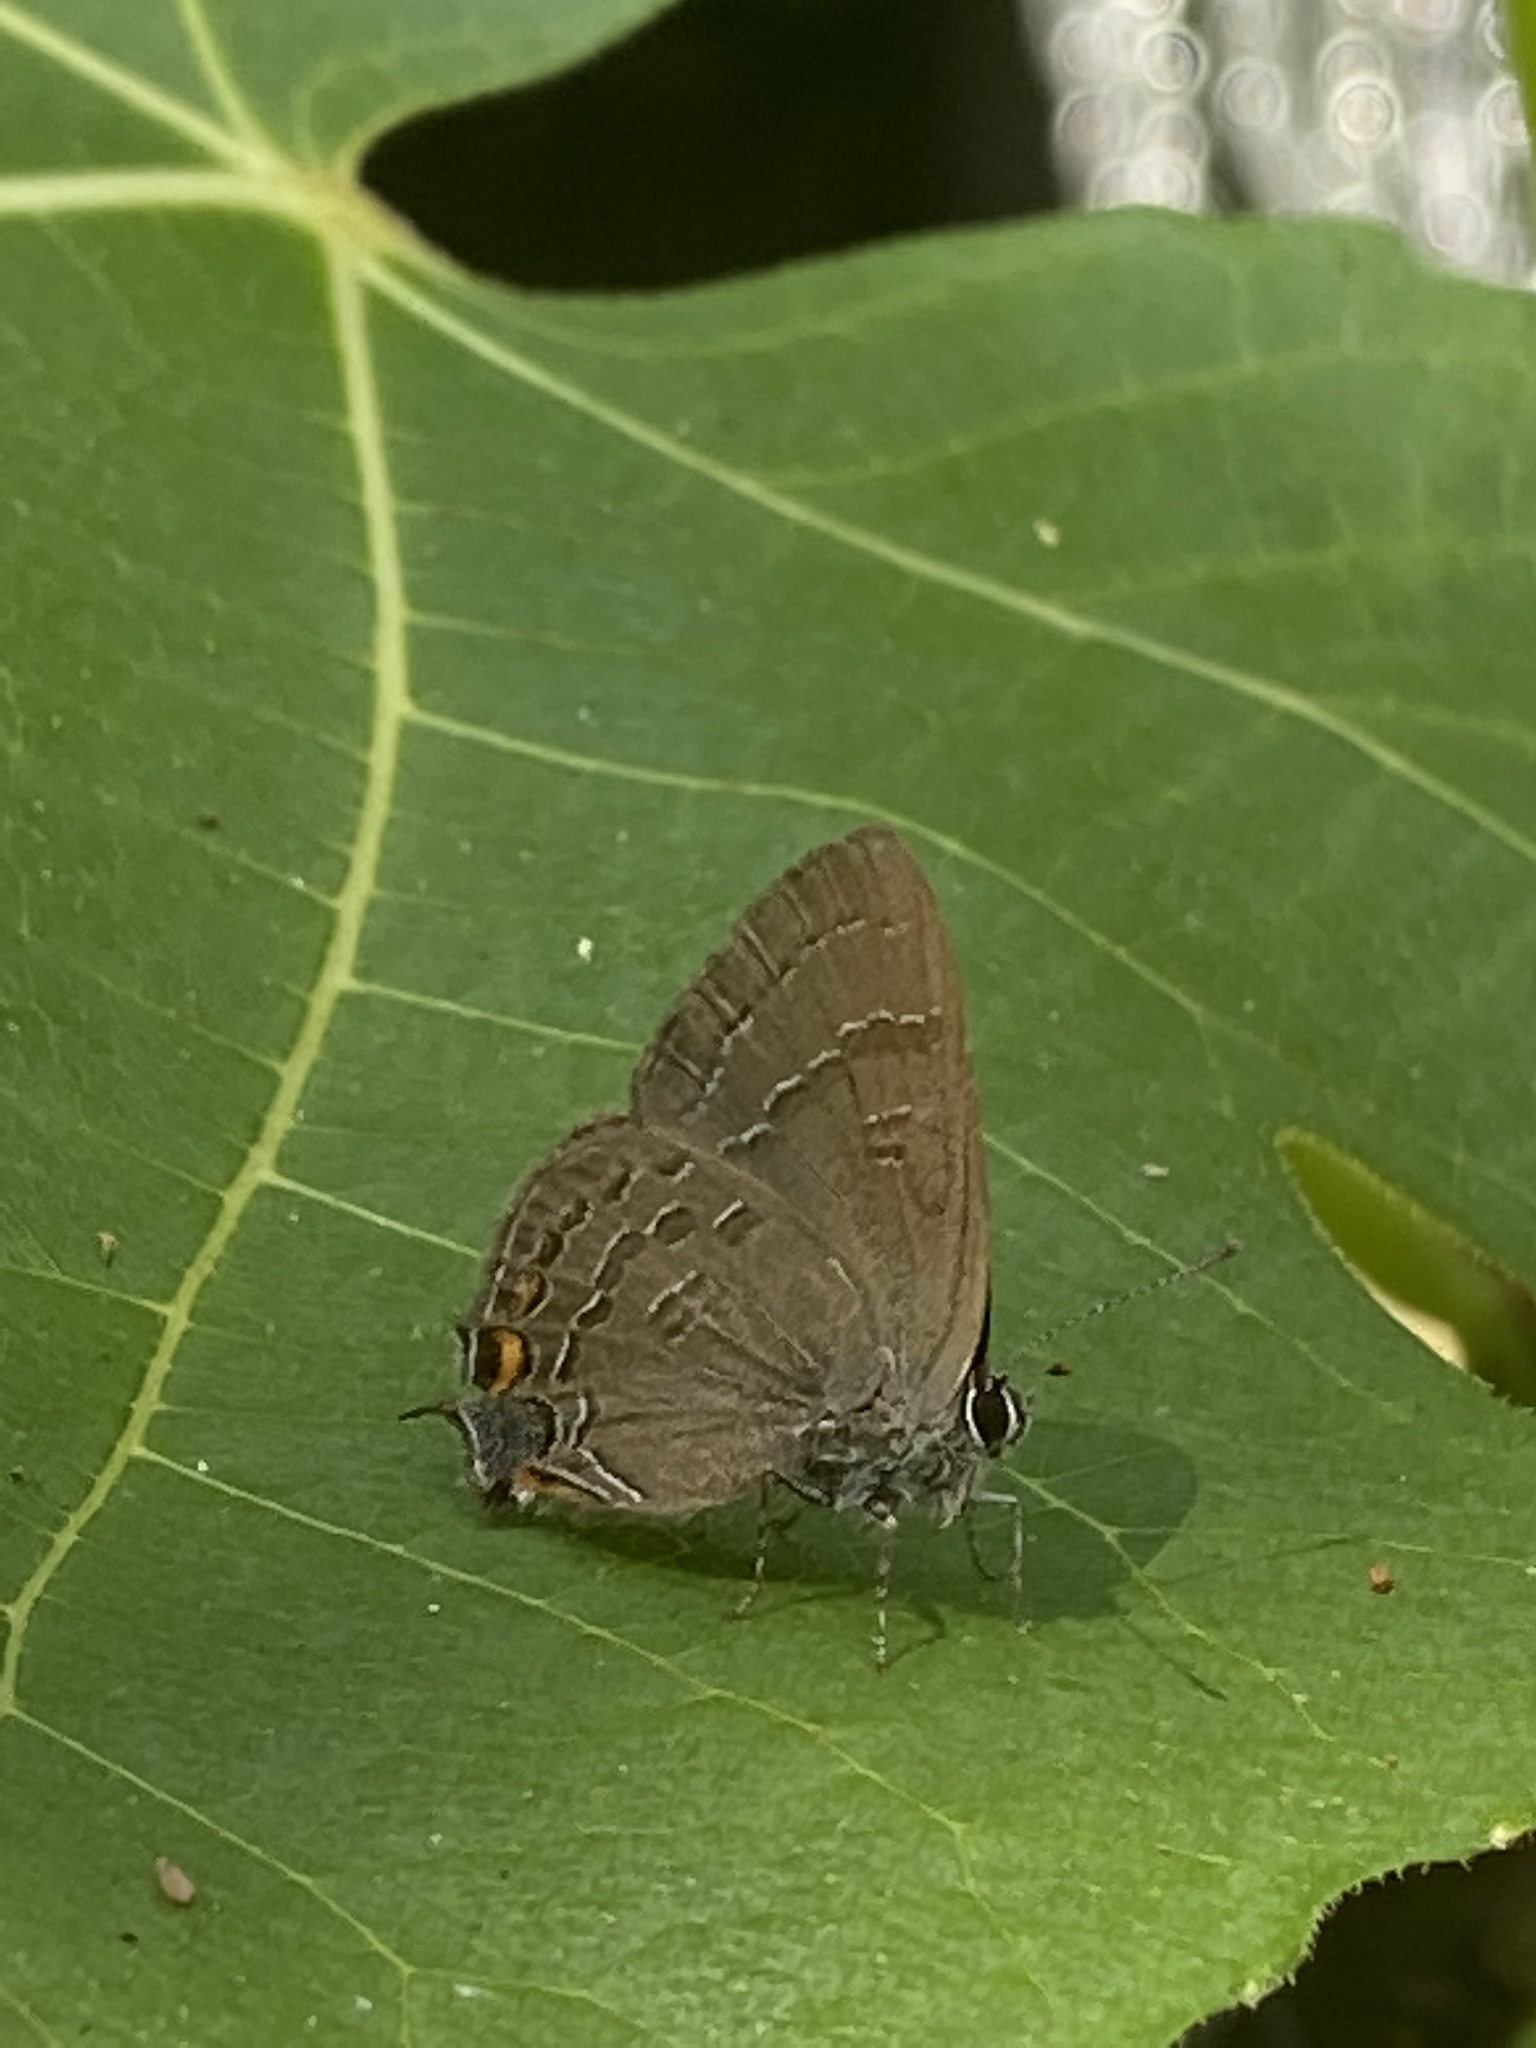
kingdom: Animalia
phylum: Arthropoda
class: Insecta
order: Lepidoptera
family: Lycaenidae
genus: Satyrium
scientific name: Satyrium calanus
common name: Banded hairstreak
